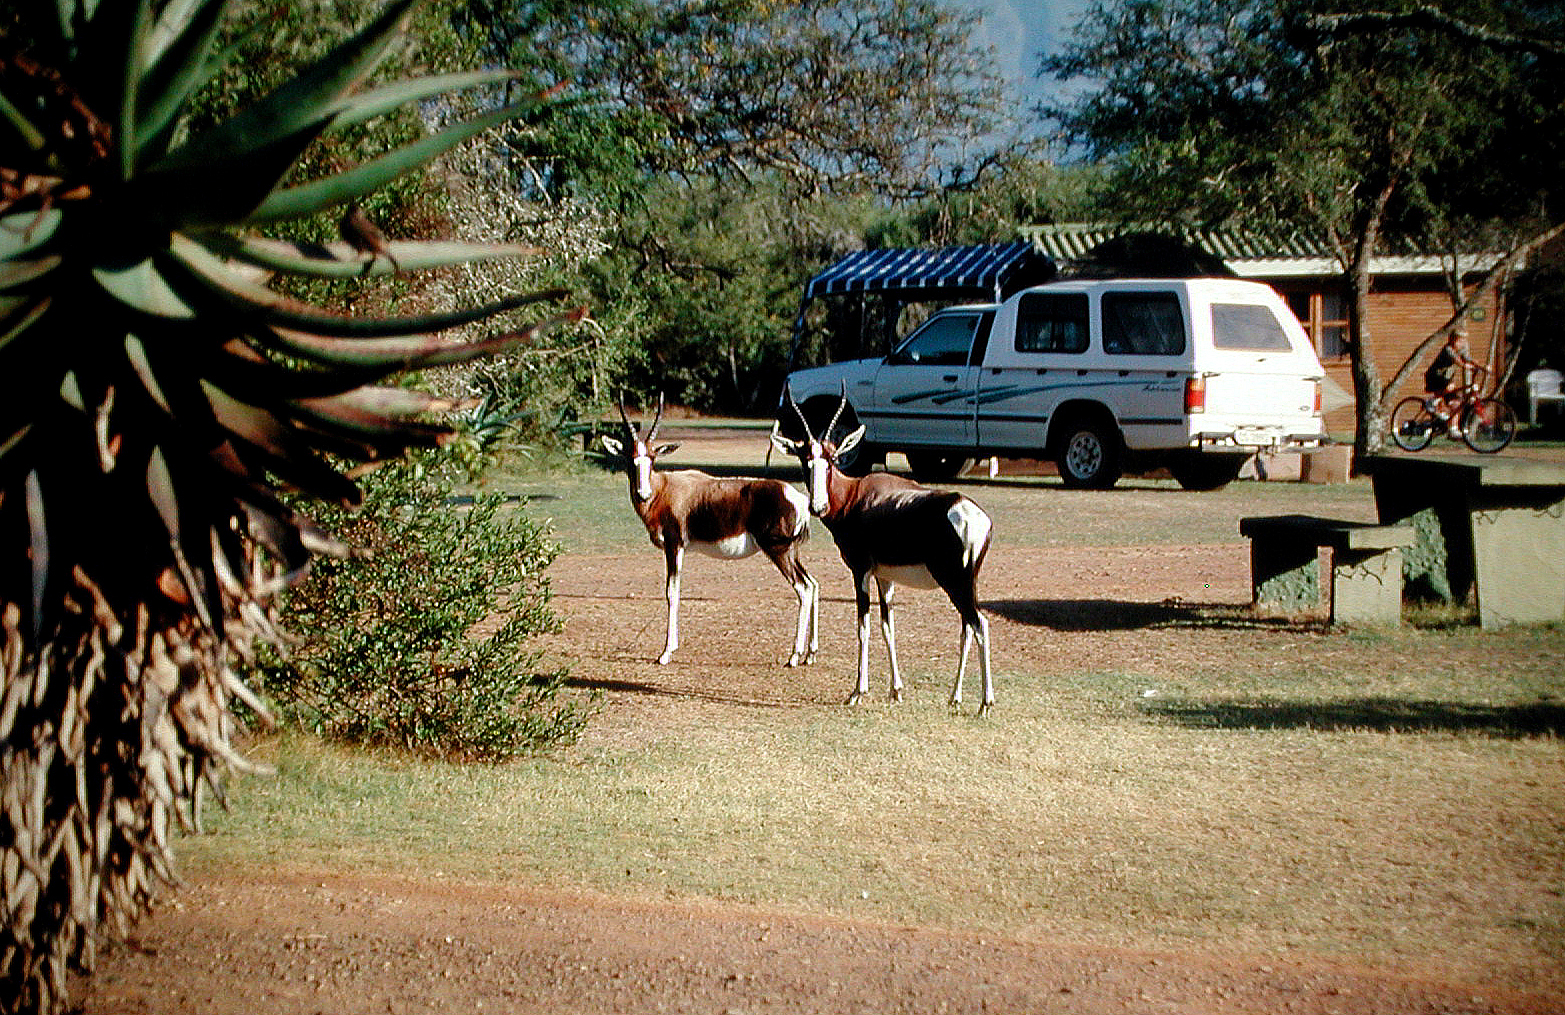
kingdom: Animalia
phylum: Chordata
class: Mammalia
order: Artiodactyla
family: Bovidae
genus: Damaliscus
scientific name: Damaliscus pygargus
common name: Bontebok
